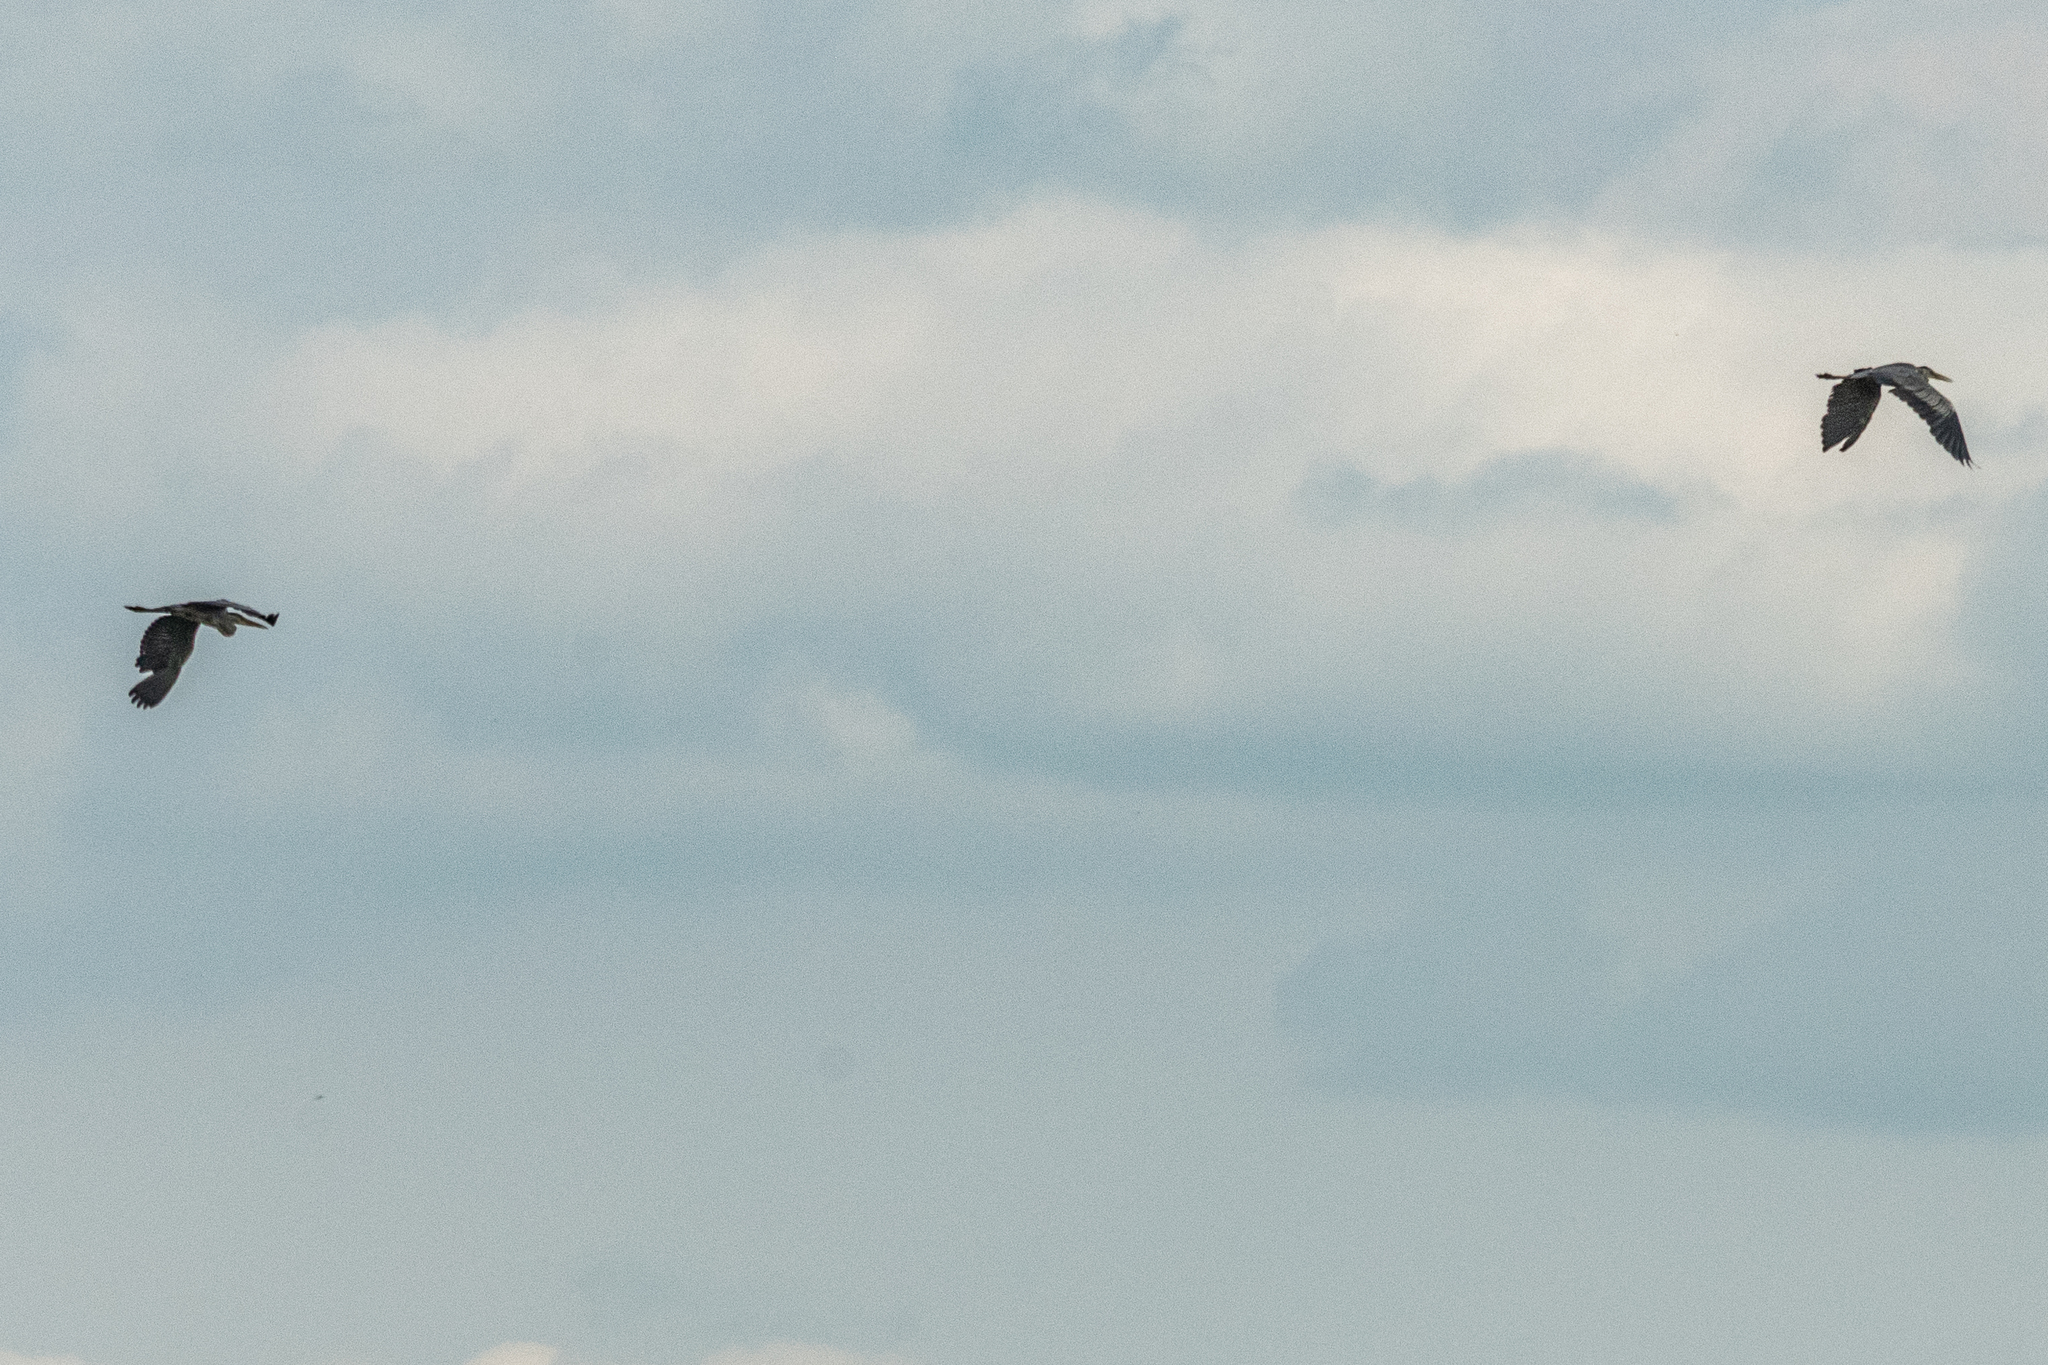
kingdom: Animalia
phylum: Chordata
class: Aves
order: Pelecaniformes
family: Ardeidae
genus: Ardea
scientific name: Ardea cinerea
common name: Grey heron
